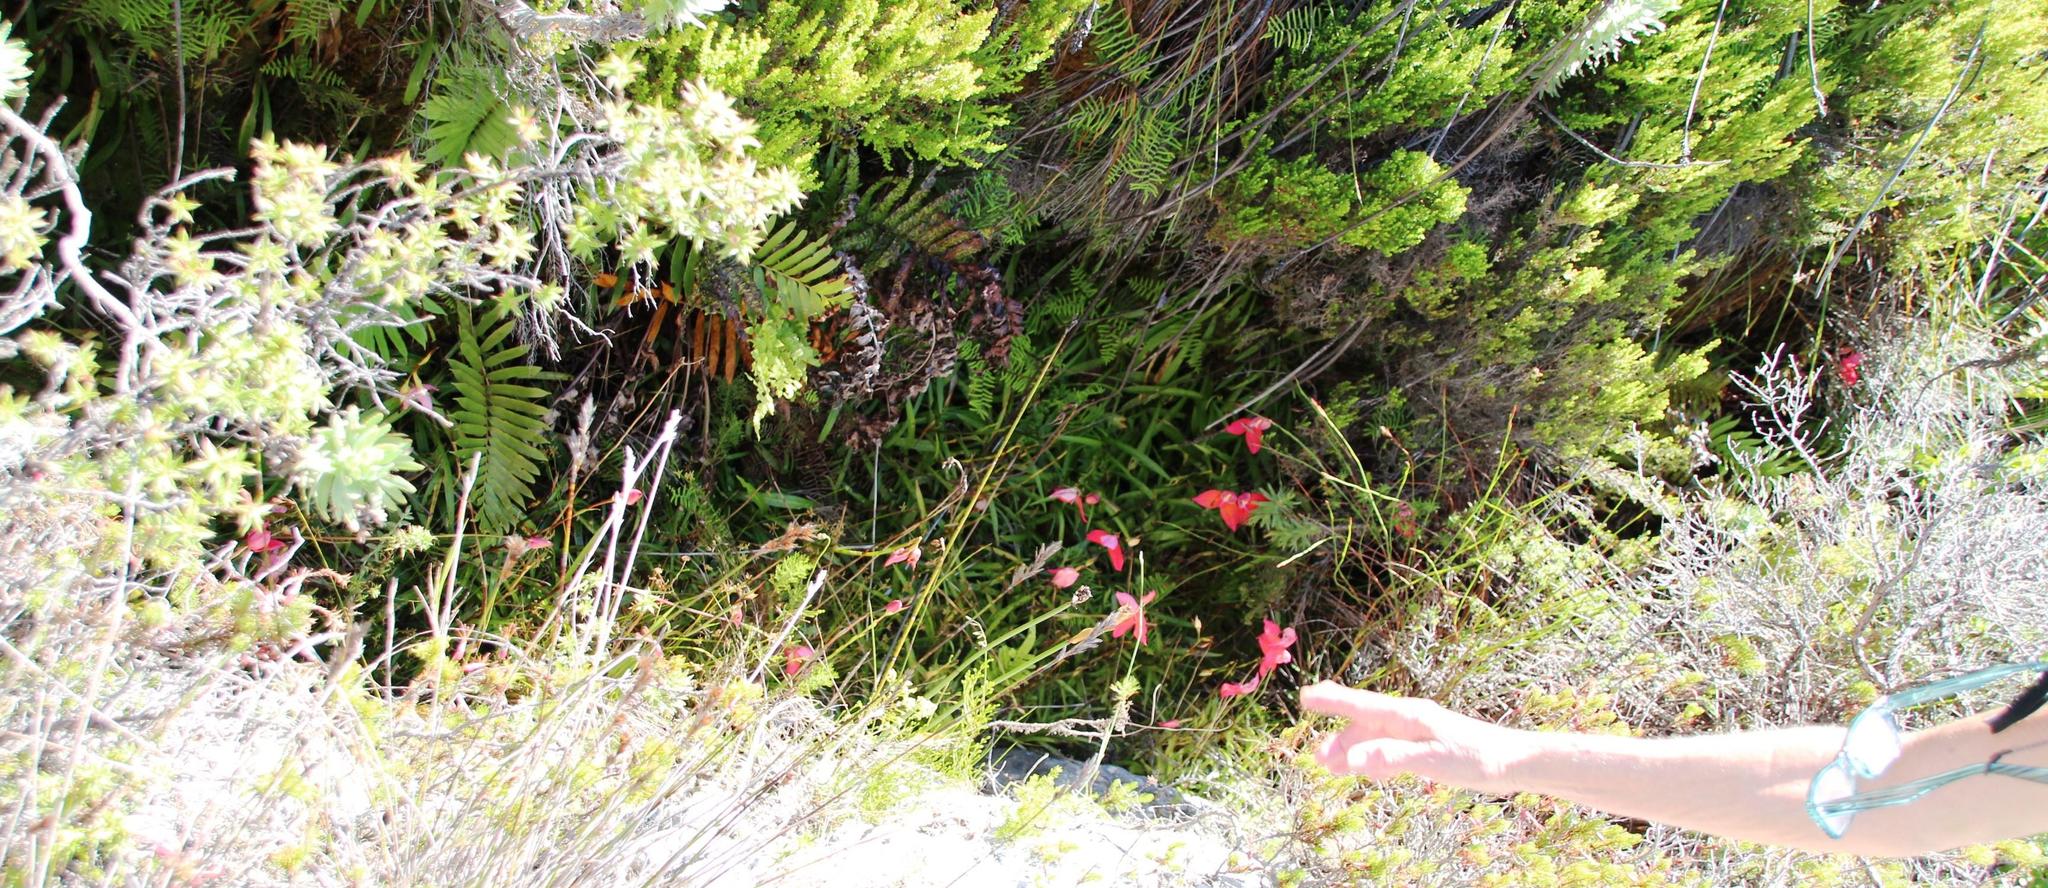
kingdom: Plantae
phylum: Tracheophyta
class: Liliopsida
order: Asparagales
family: Orchidaceae
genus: Disa
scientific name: Disa uniflora
